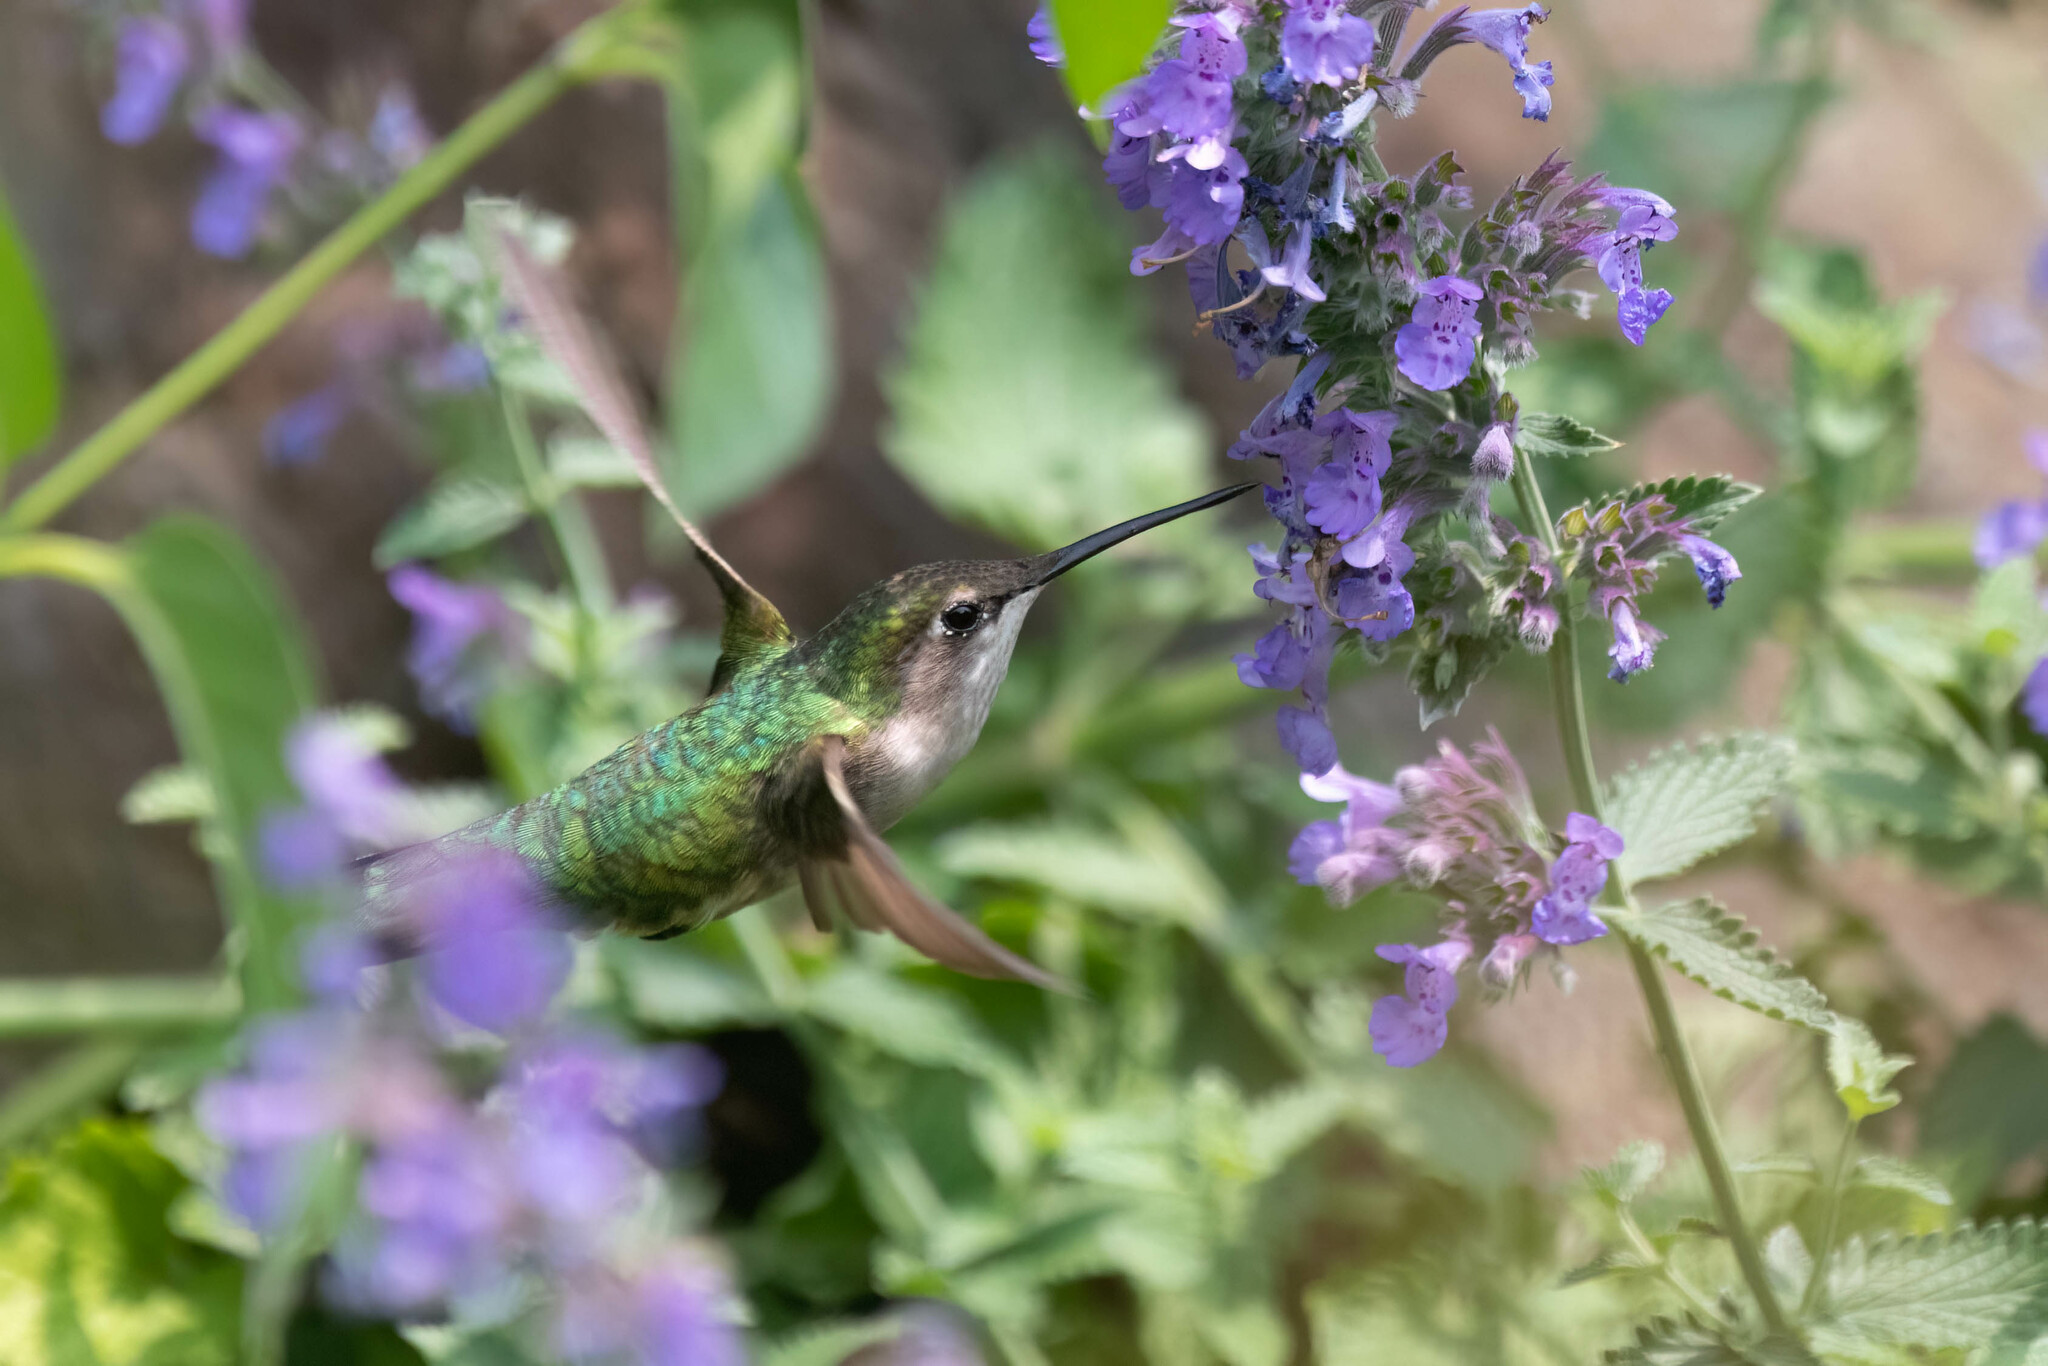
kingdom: Animalia
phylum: Chordata
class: Aves
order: Apodiformes
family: Trochilidae
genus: Archilochus
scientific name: Archilochus colubris
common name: Ruby-throated hummingbird
